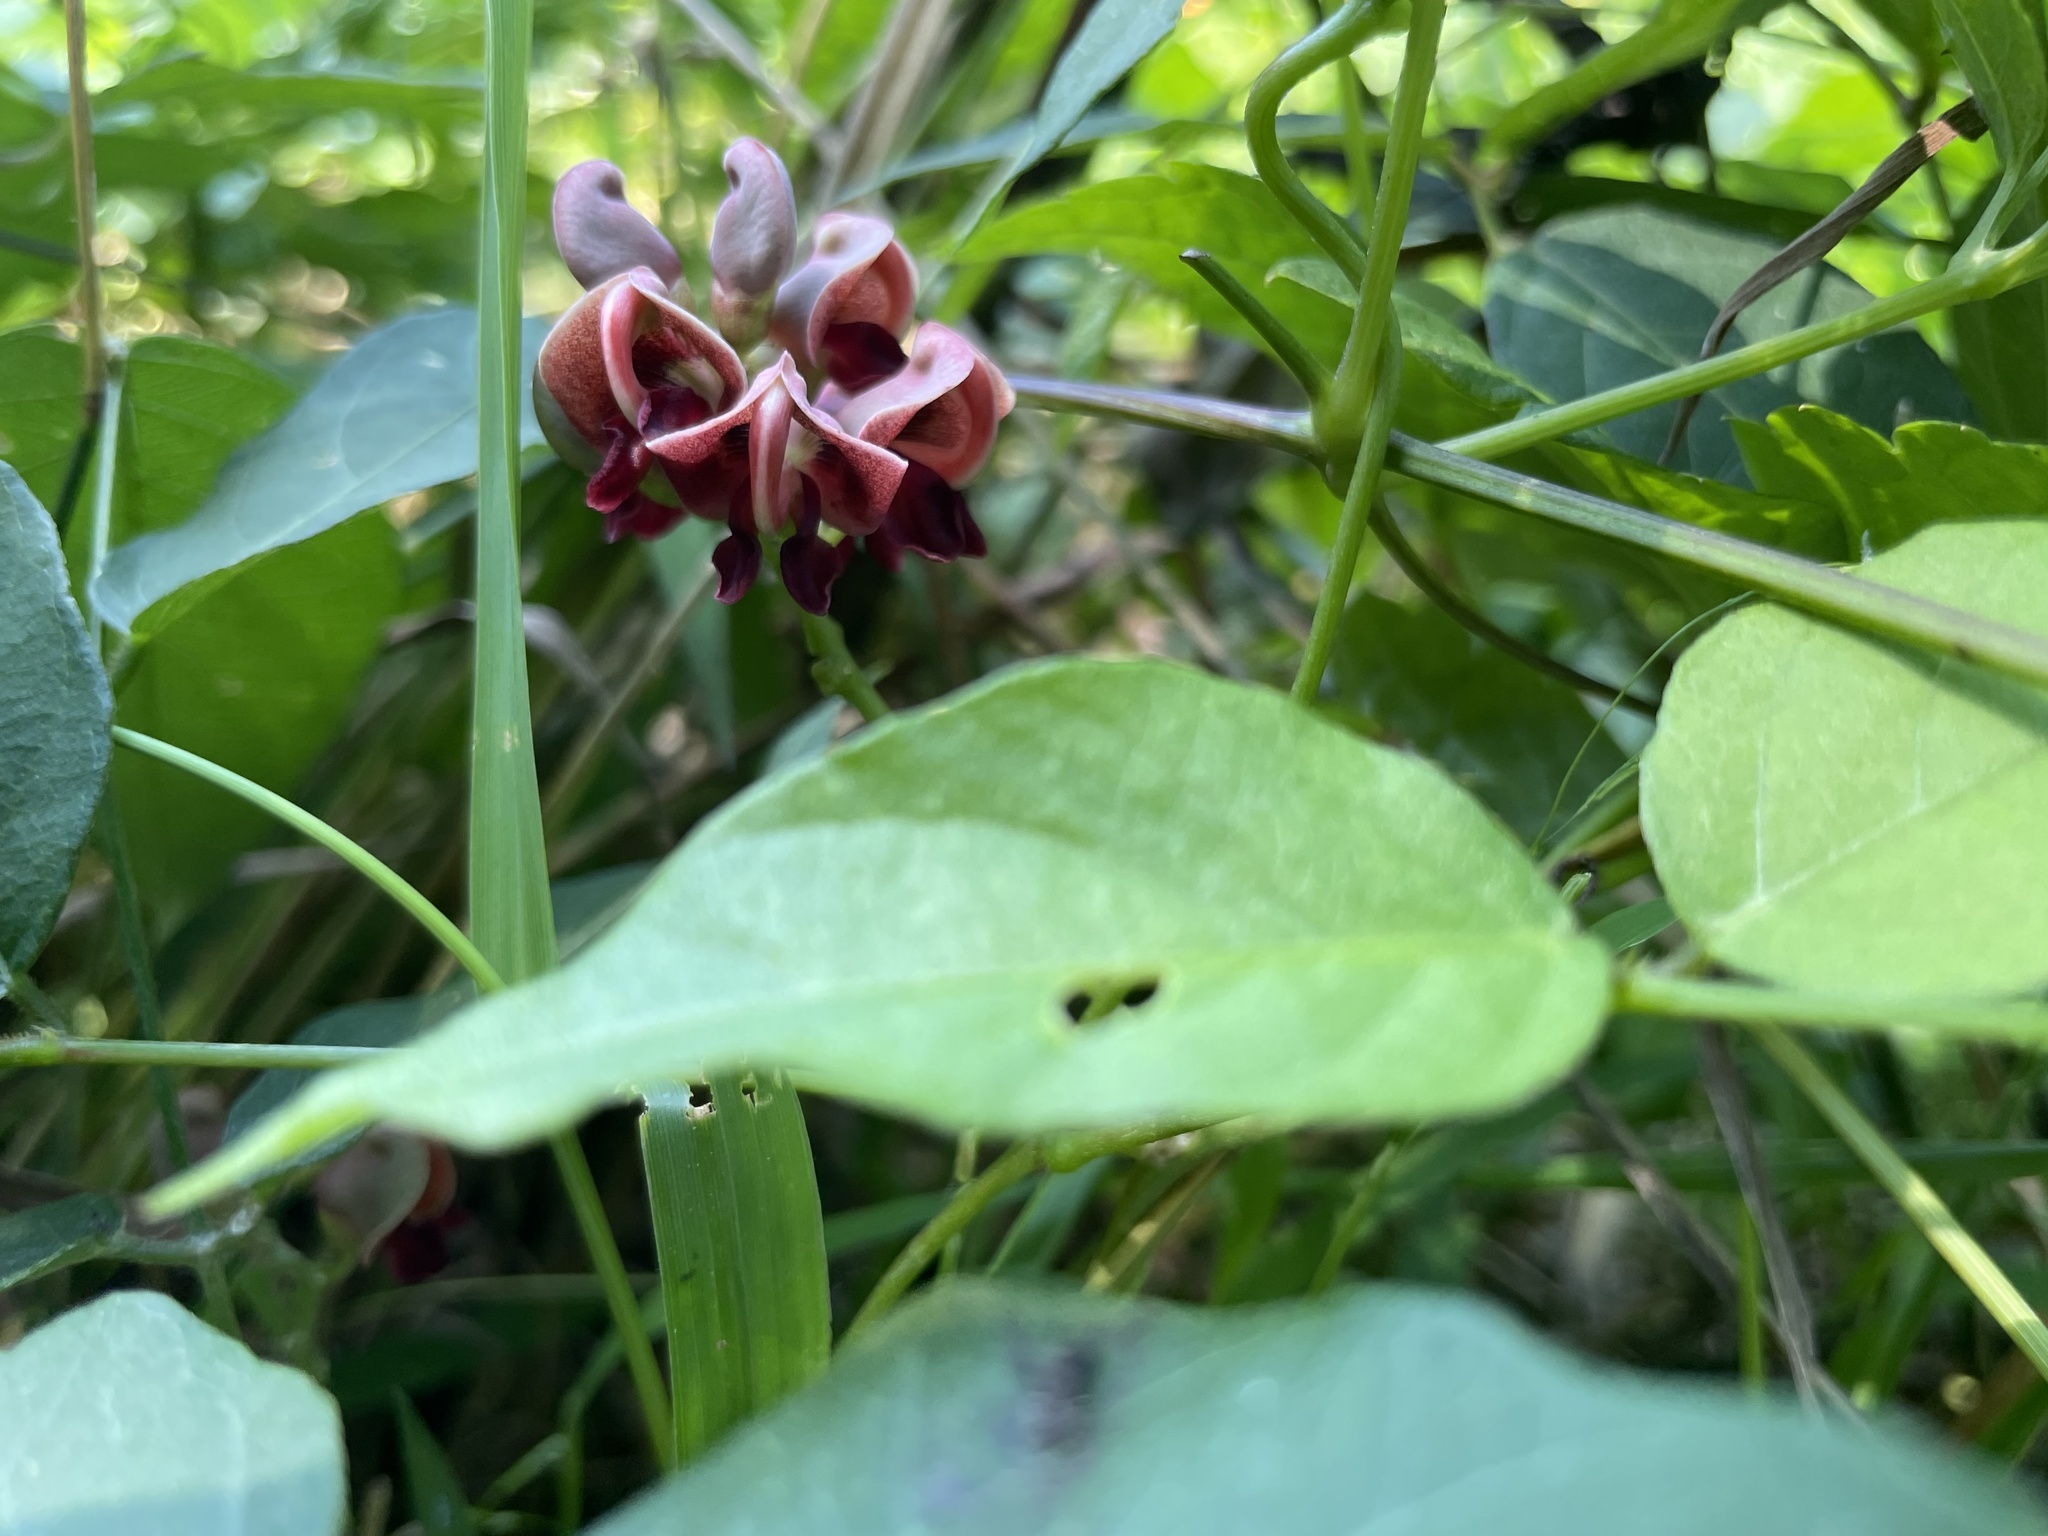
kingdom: Plantae
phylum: Tracheophyta
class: Magnoliopsida
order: Fabales
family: Fabaceae
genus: Apios
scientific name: Apios americana
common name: American potato-bean
